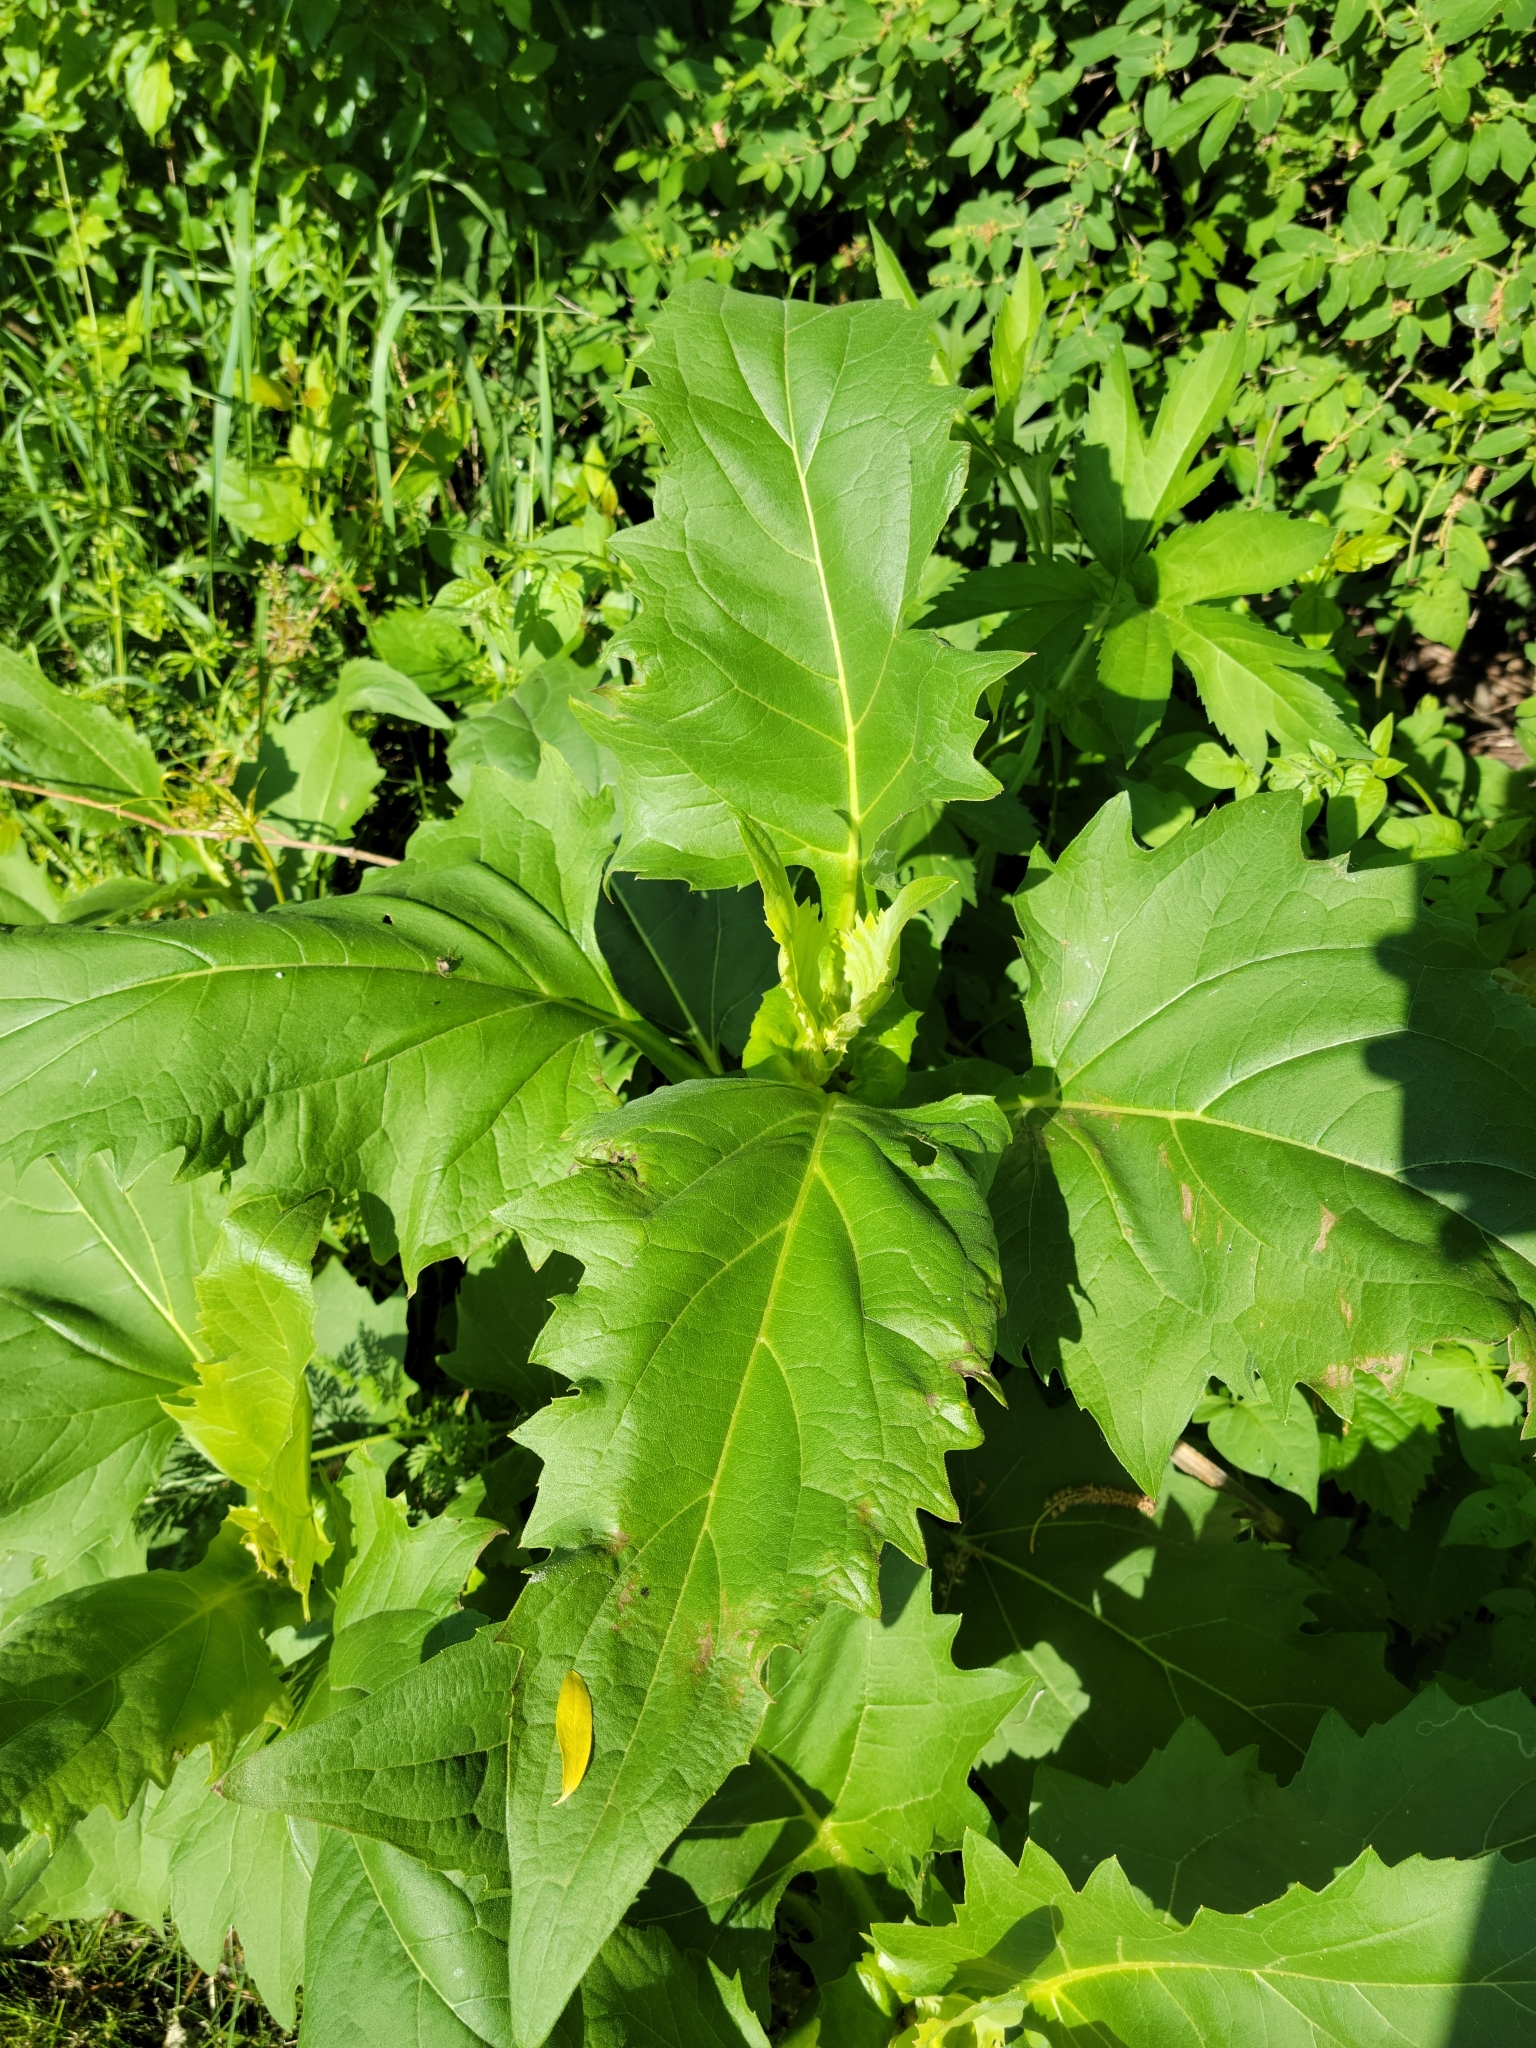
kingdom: Plantae
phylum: Tracheophyta
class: Magnoliopsida
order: Asterales
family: Asteraceae
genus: Silphium
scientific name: Silphium perfoliatum
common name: Cup-plant
